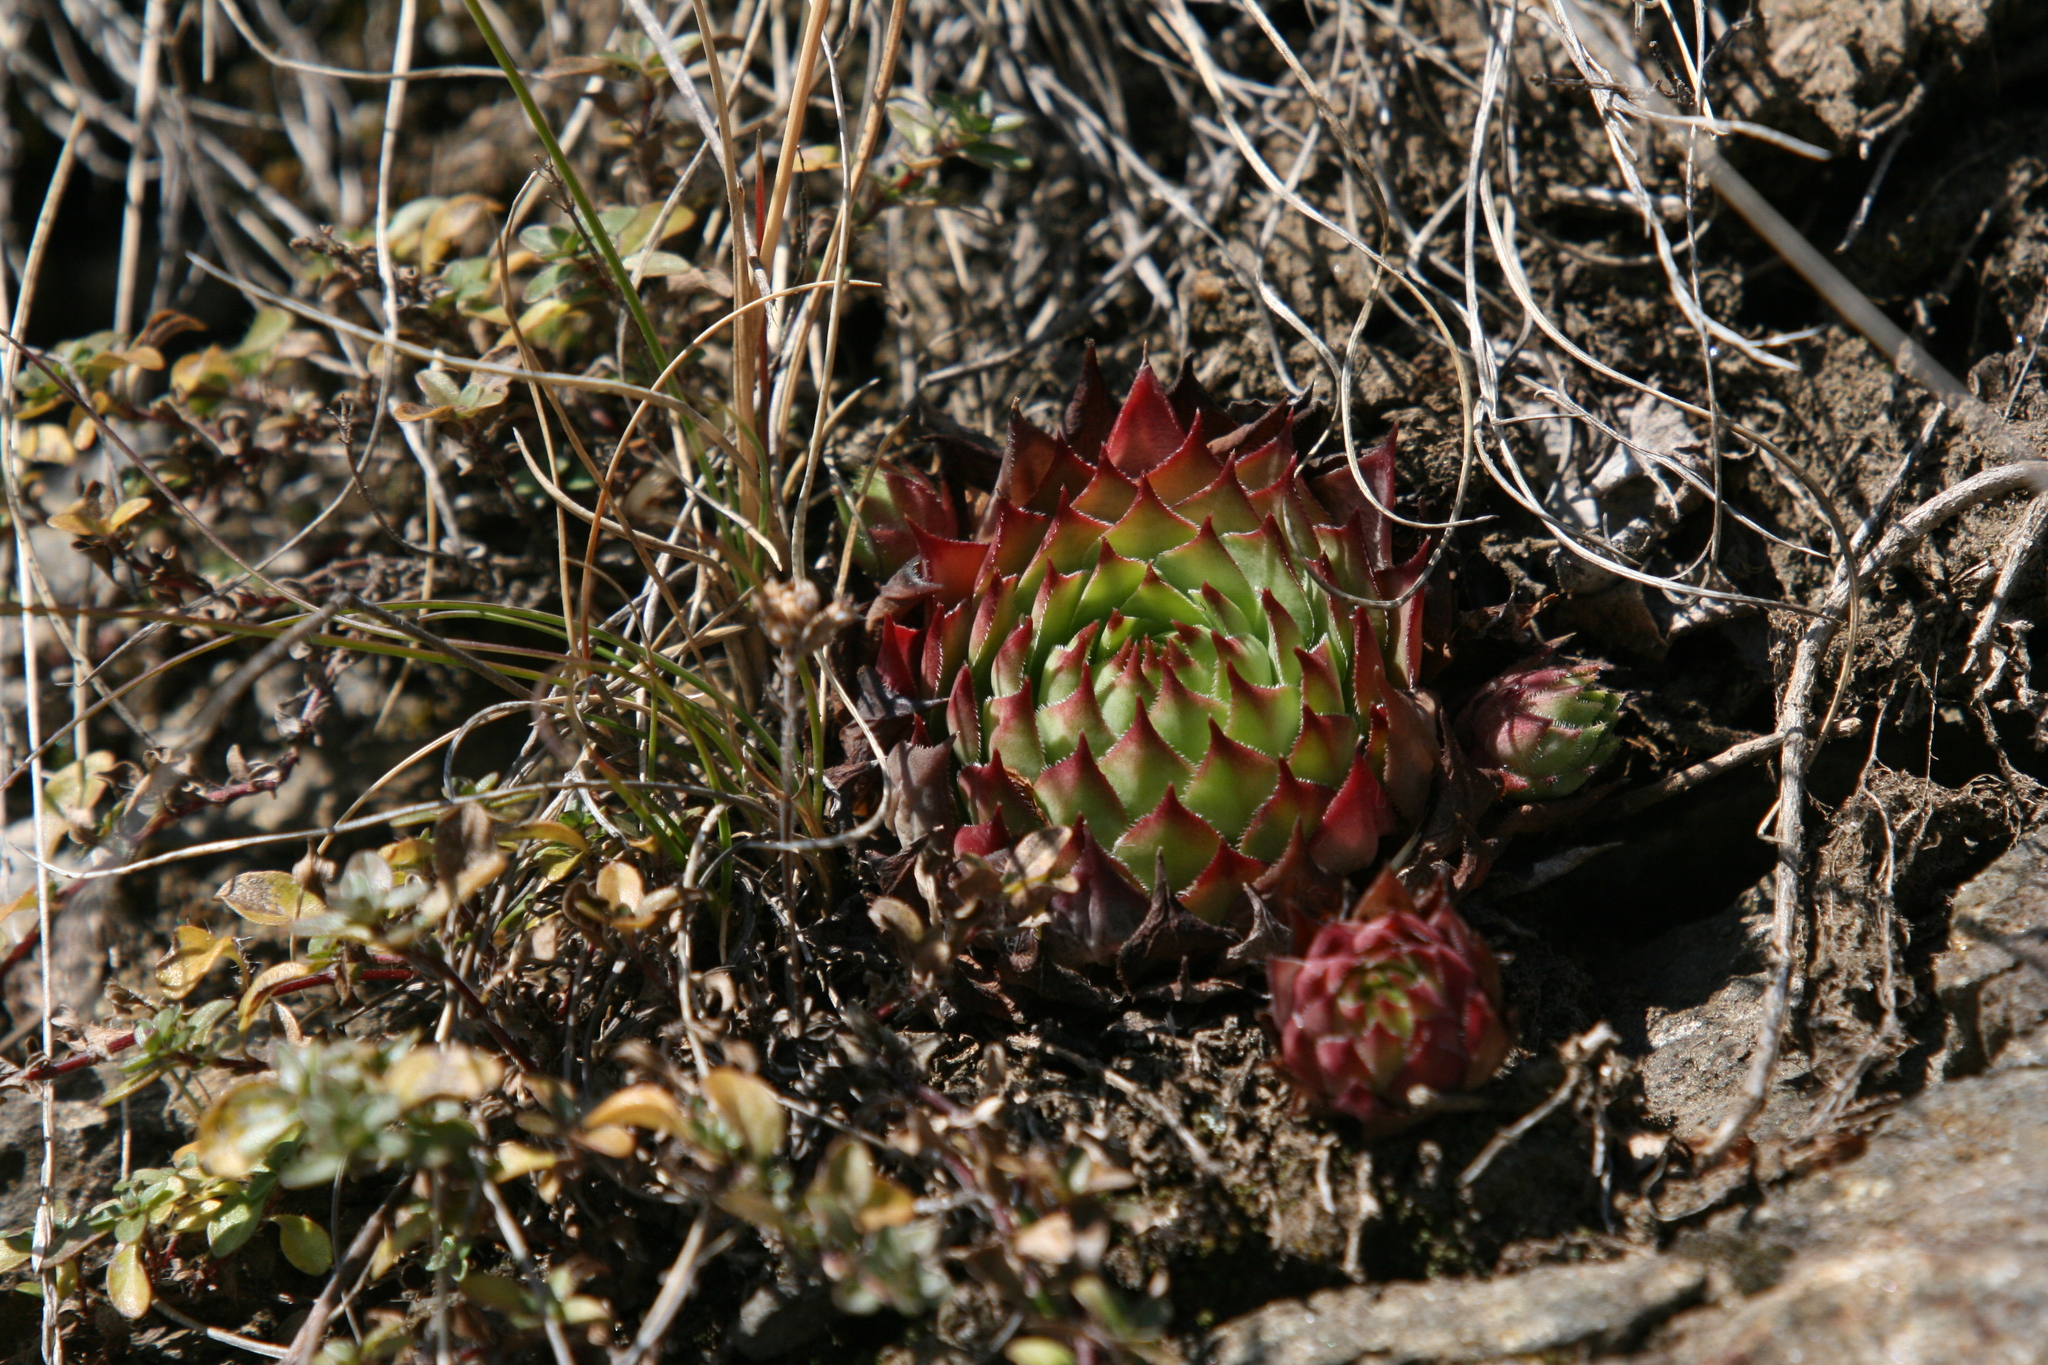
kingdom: Plantae
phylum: Tracheophyta
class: Magnoliopsida
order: Saxifragales
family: Crassulaceae
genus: Sempervivum
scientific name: Sempervivum tectorum
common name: House-leek
